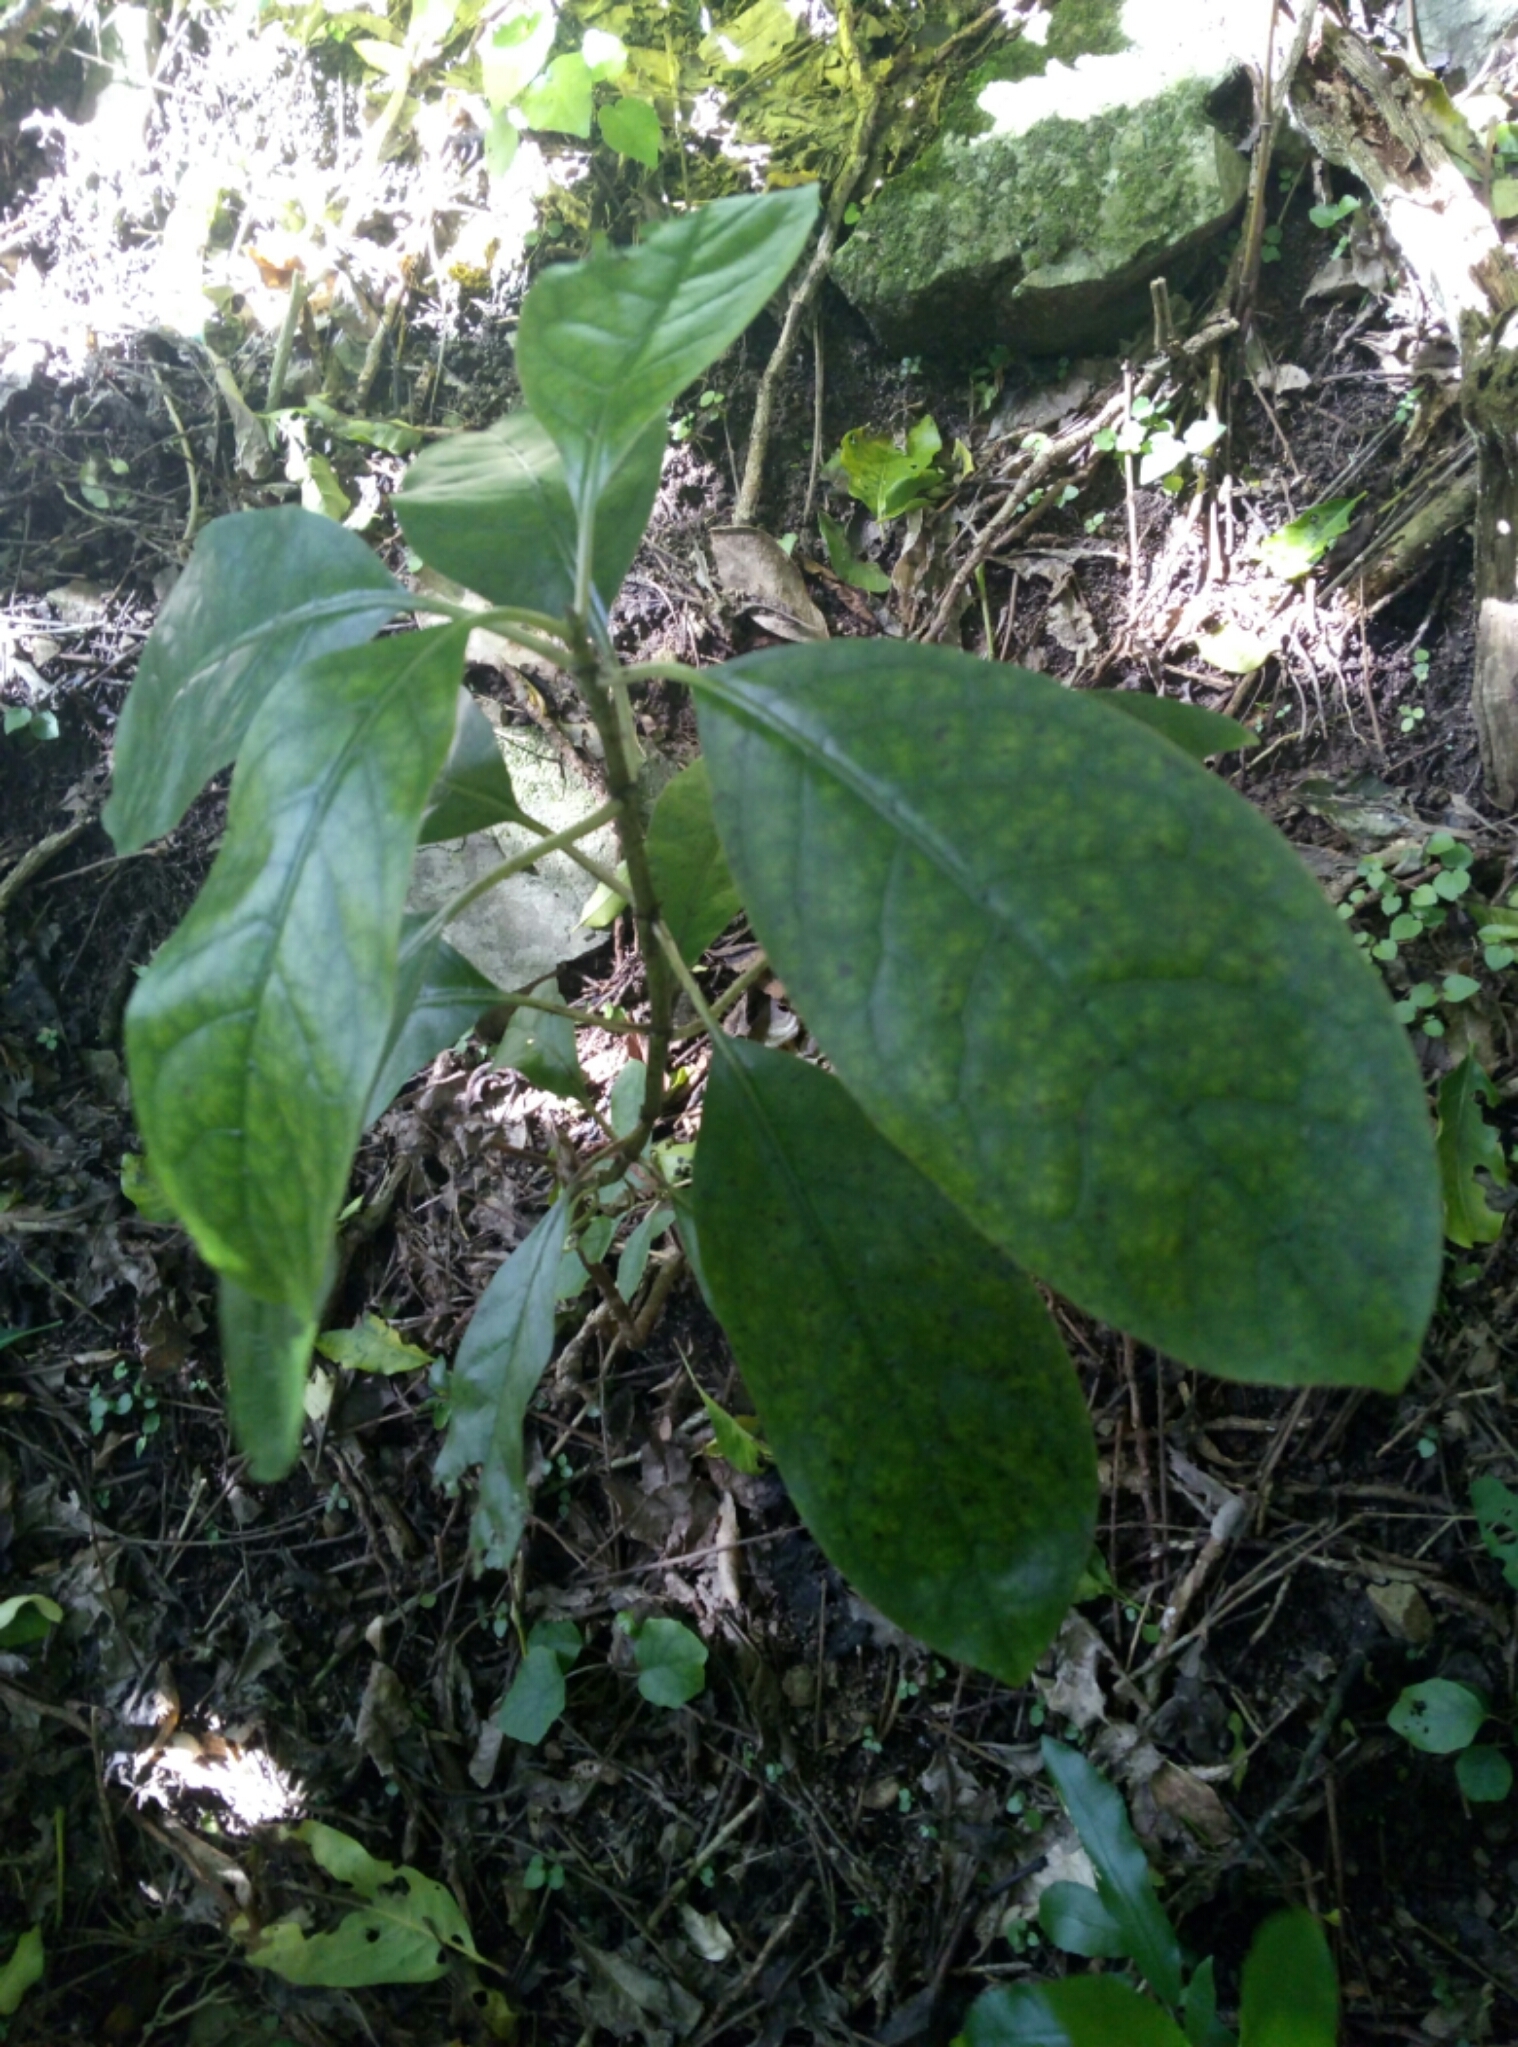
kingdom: Plantae
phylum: Tracheophyta
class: Magnoliopsida
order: Gentianales
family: Rubiaceae
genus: Coprosma
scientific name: Coprosma autumnalis
